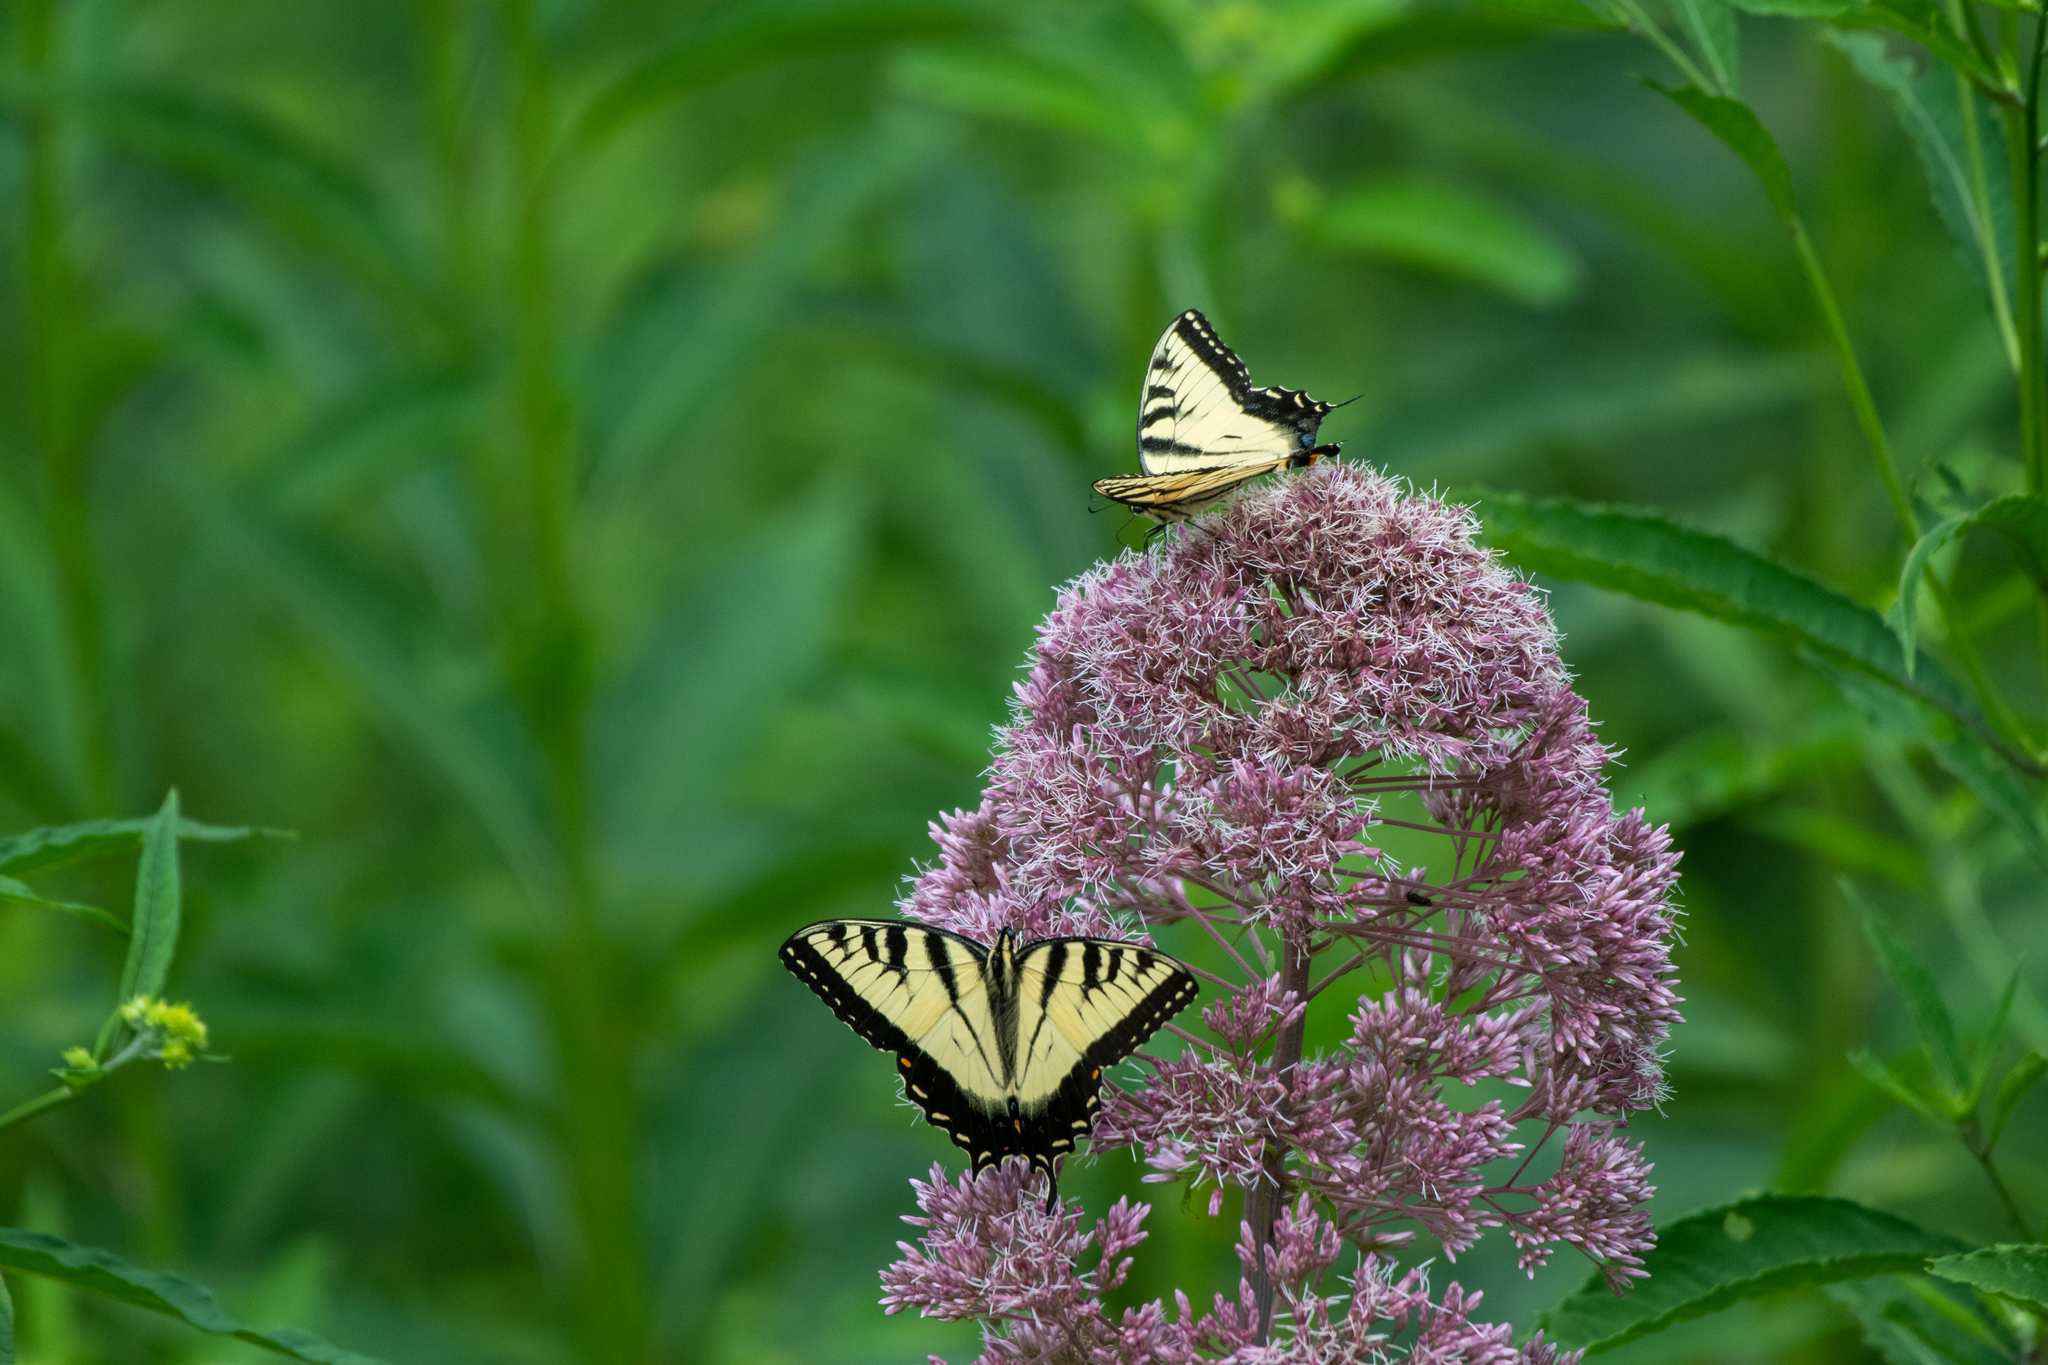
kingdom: Animalia
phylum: Arthropoda
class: Insecta
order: Lepidoptera
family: Papilionidae
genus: Papilio
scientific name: Papilio glaucus
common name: Tiger swallowtail
